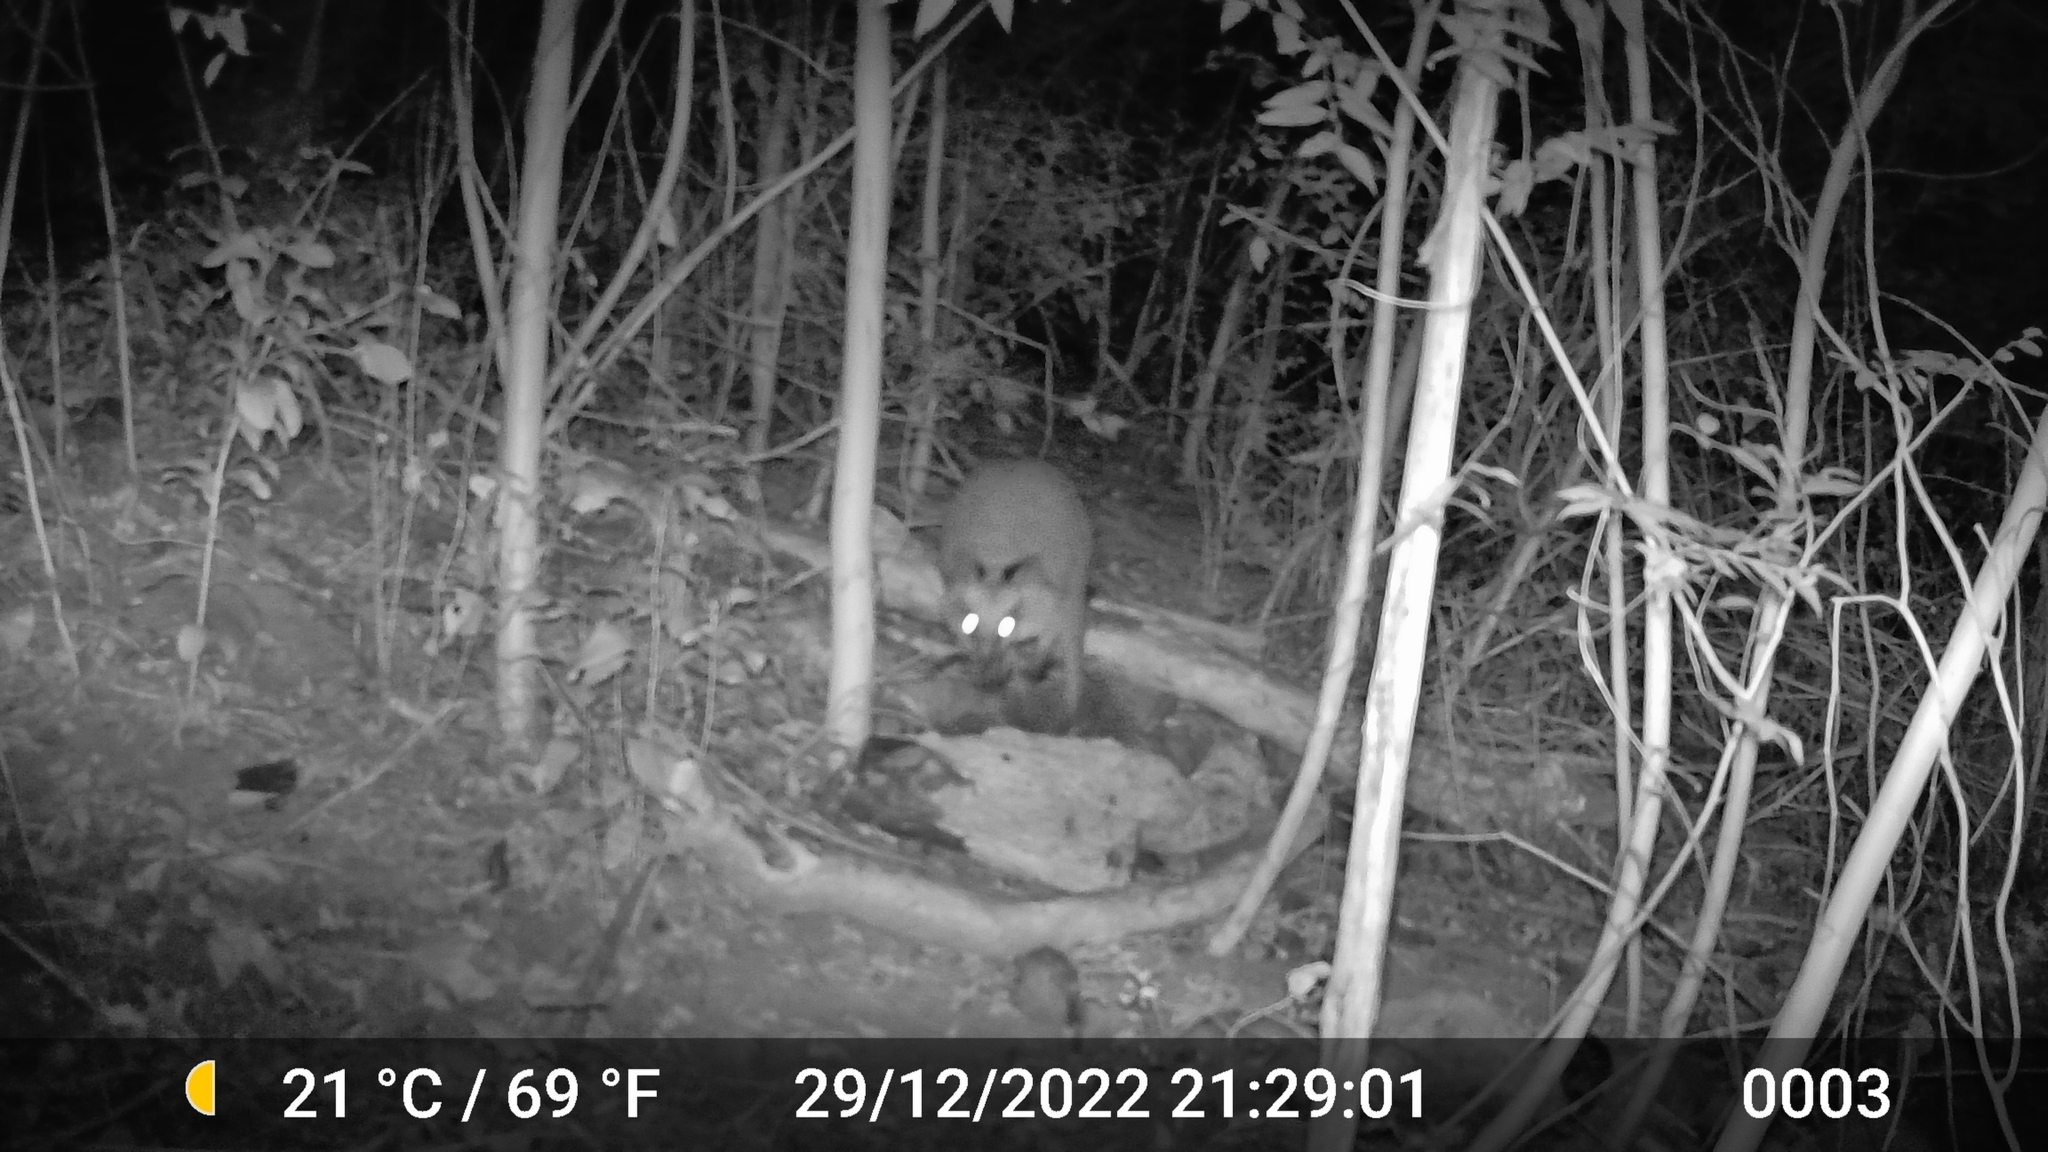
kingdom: Animalia
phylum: Chordata
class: Mammalia
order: Diprotodontia
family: Macropodidae
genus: Wallabia
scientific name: Wallabia bicolor
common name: Swamp wallaby
